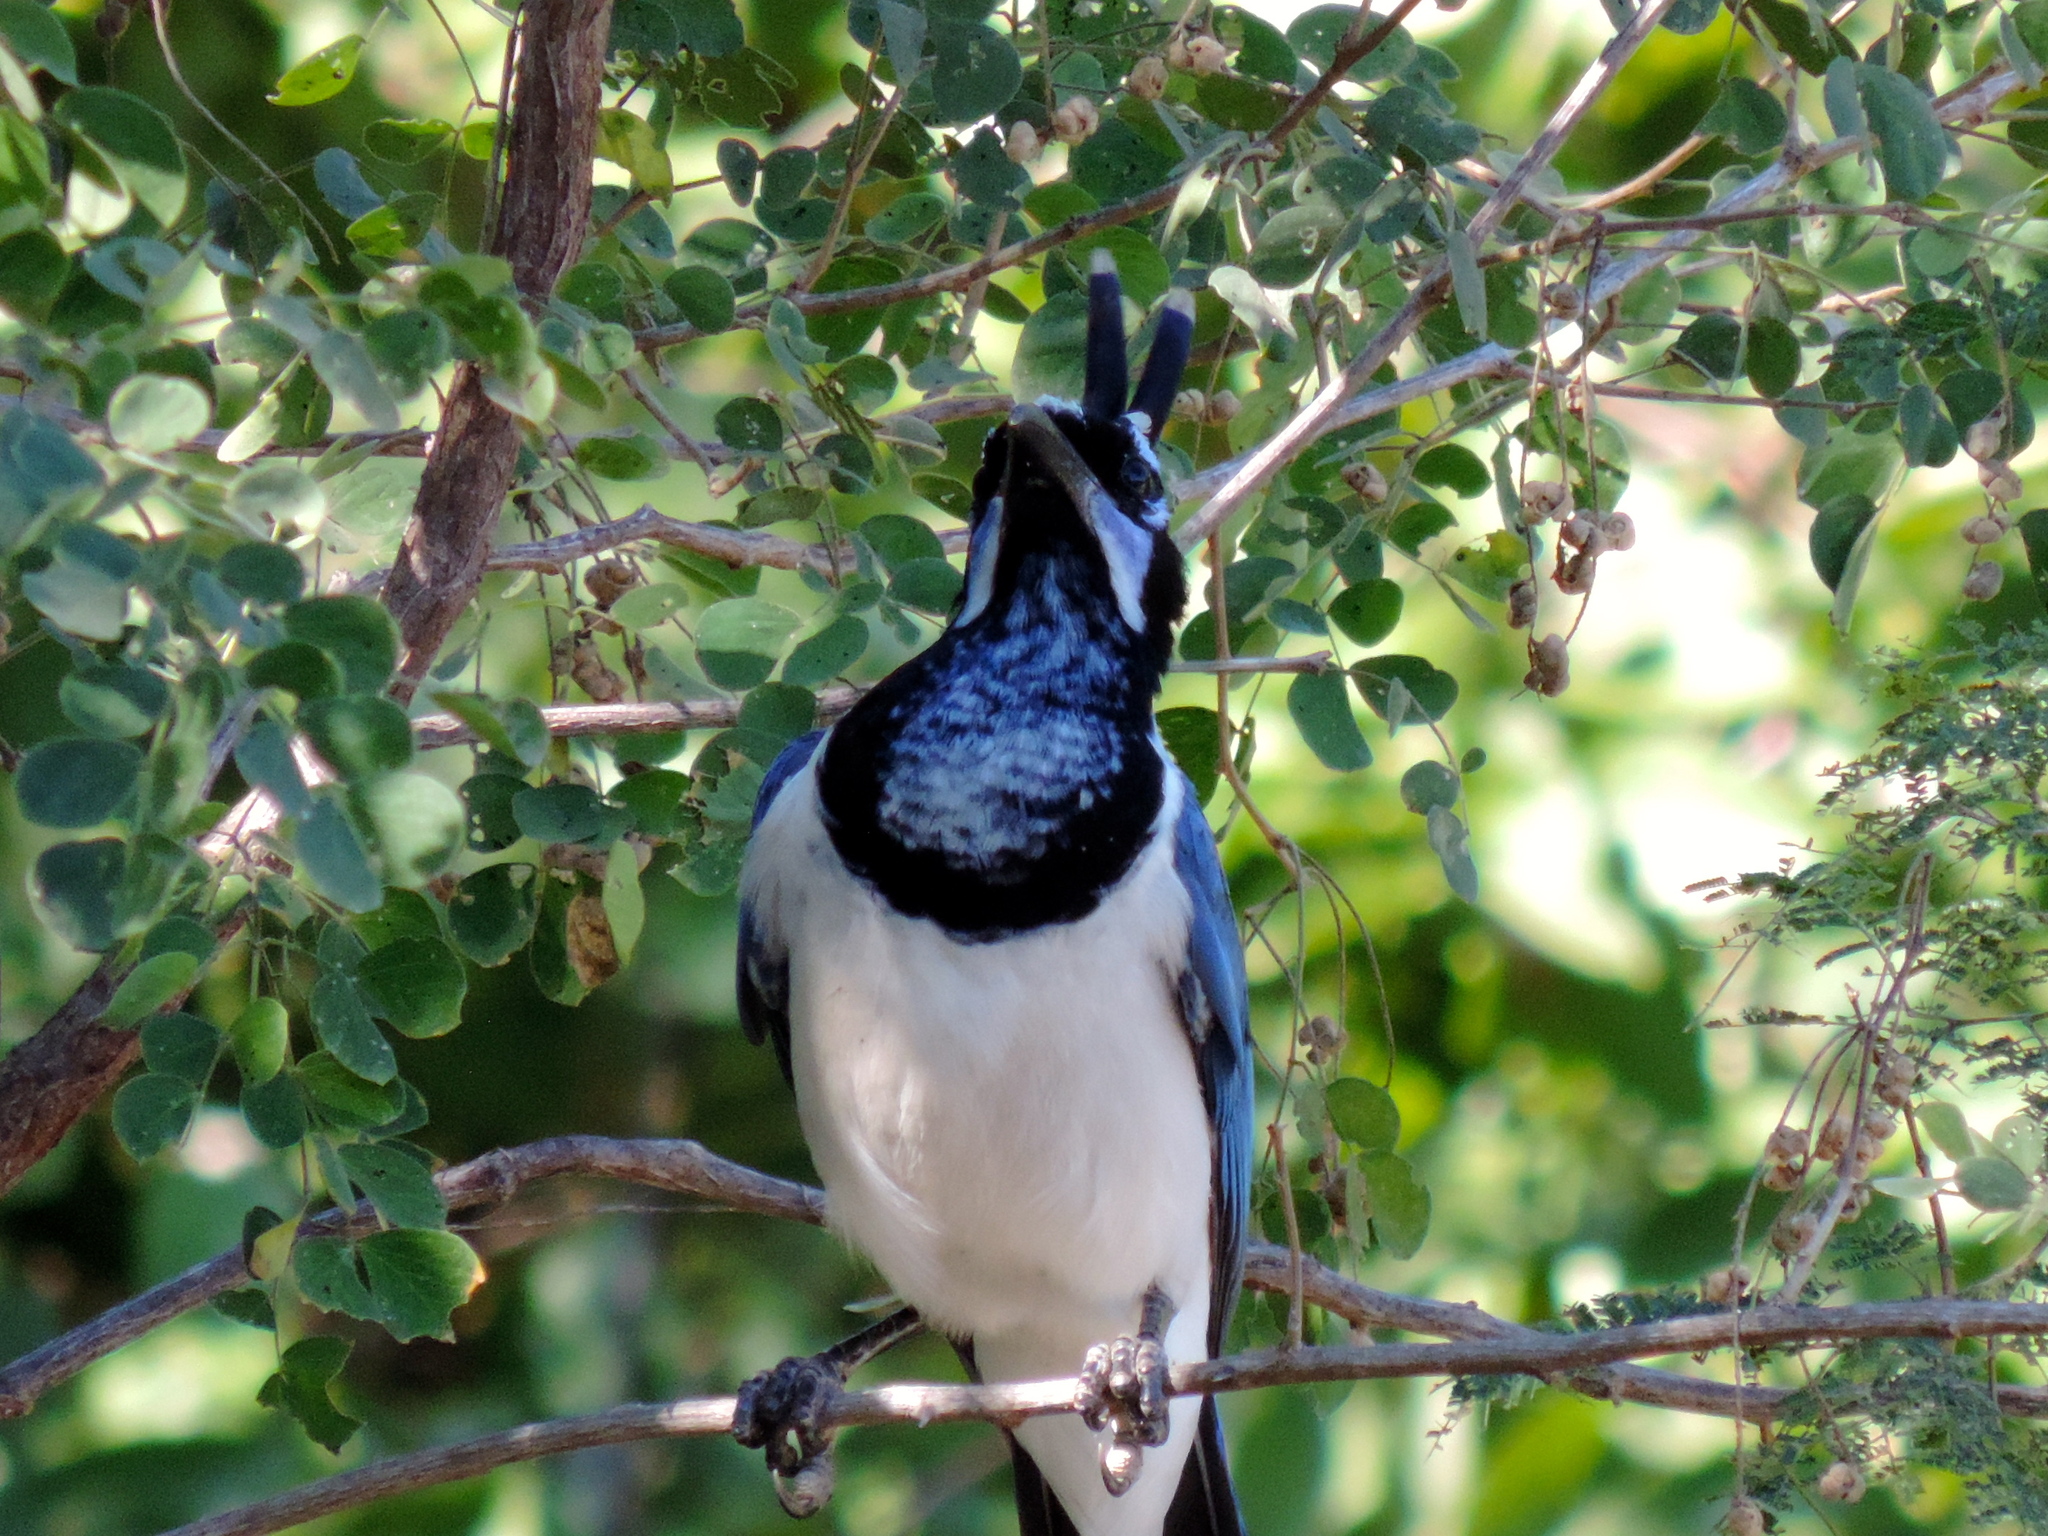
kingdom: Animalia
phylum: Chordata
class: Aves
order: Passeriformes
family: Corvidae
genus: Calocitta
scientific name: Calocitta colliei
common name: Black-throated magpie-jay
